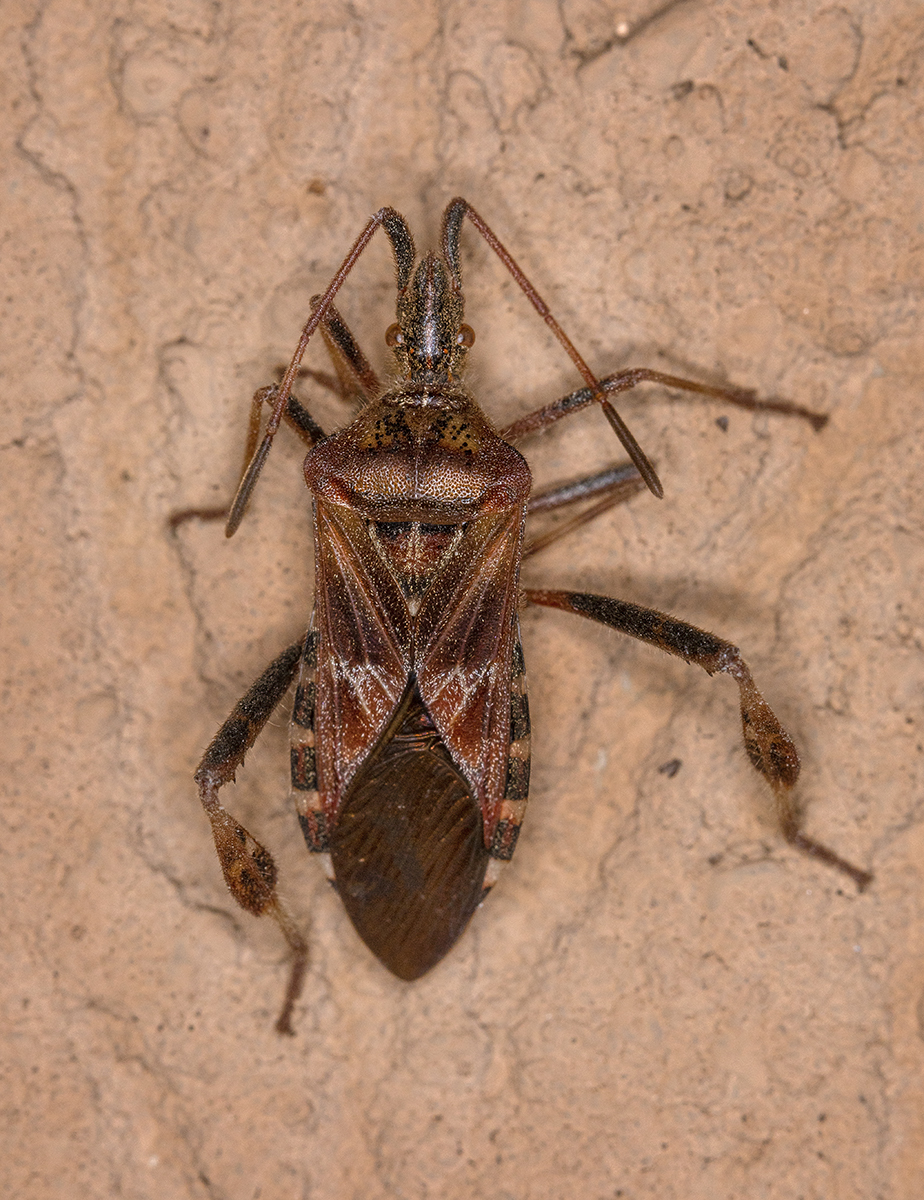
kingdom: Animalia
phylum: Arthropoda
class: Insecta
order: Hemiptera
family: Coreidae
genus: Leptoglossus
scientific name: Leptoglossus occidentalis
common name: Western conifer-seed bug
